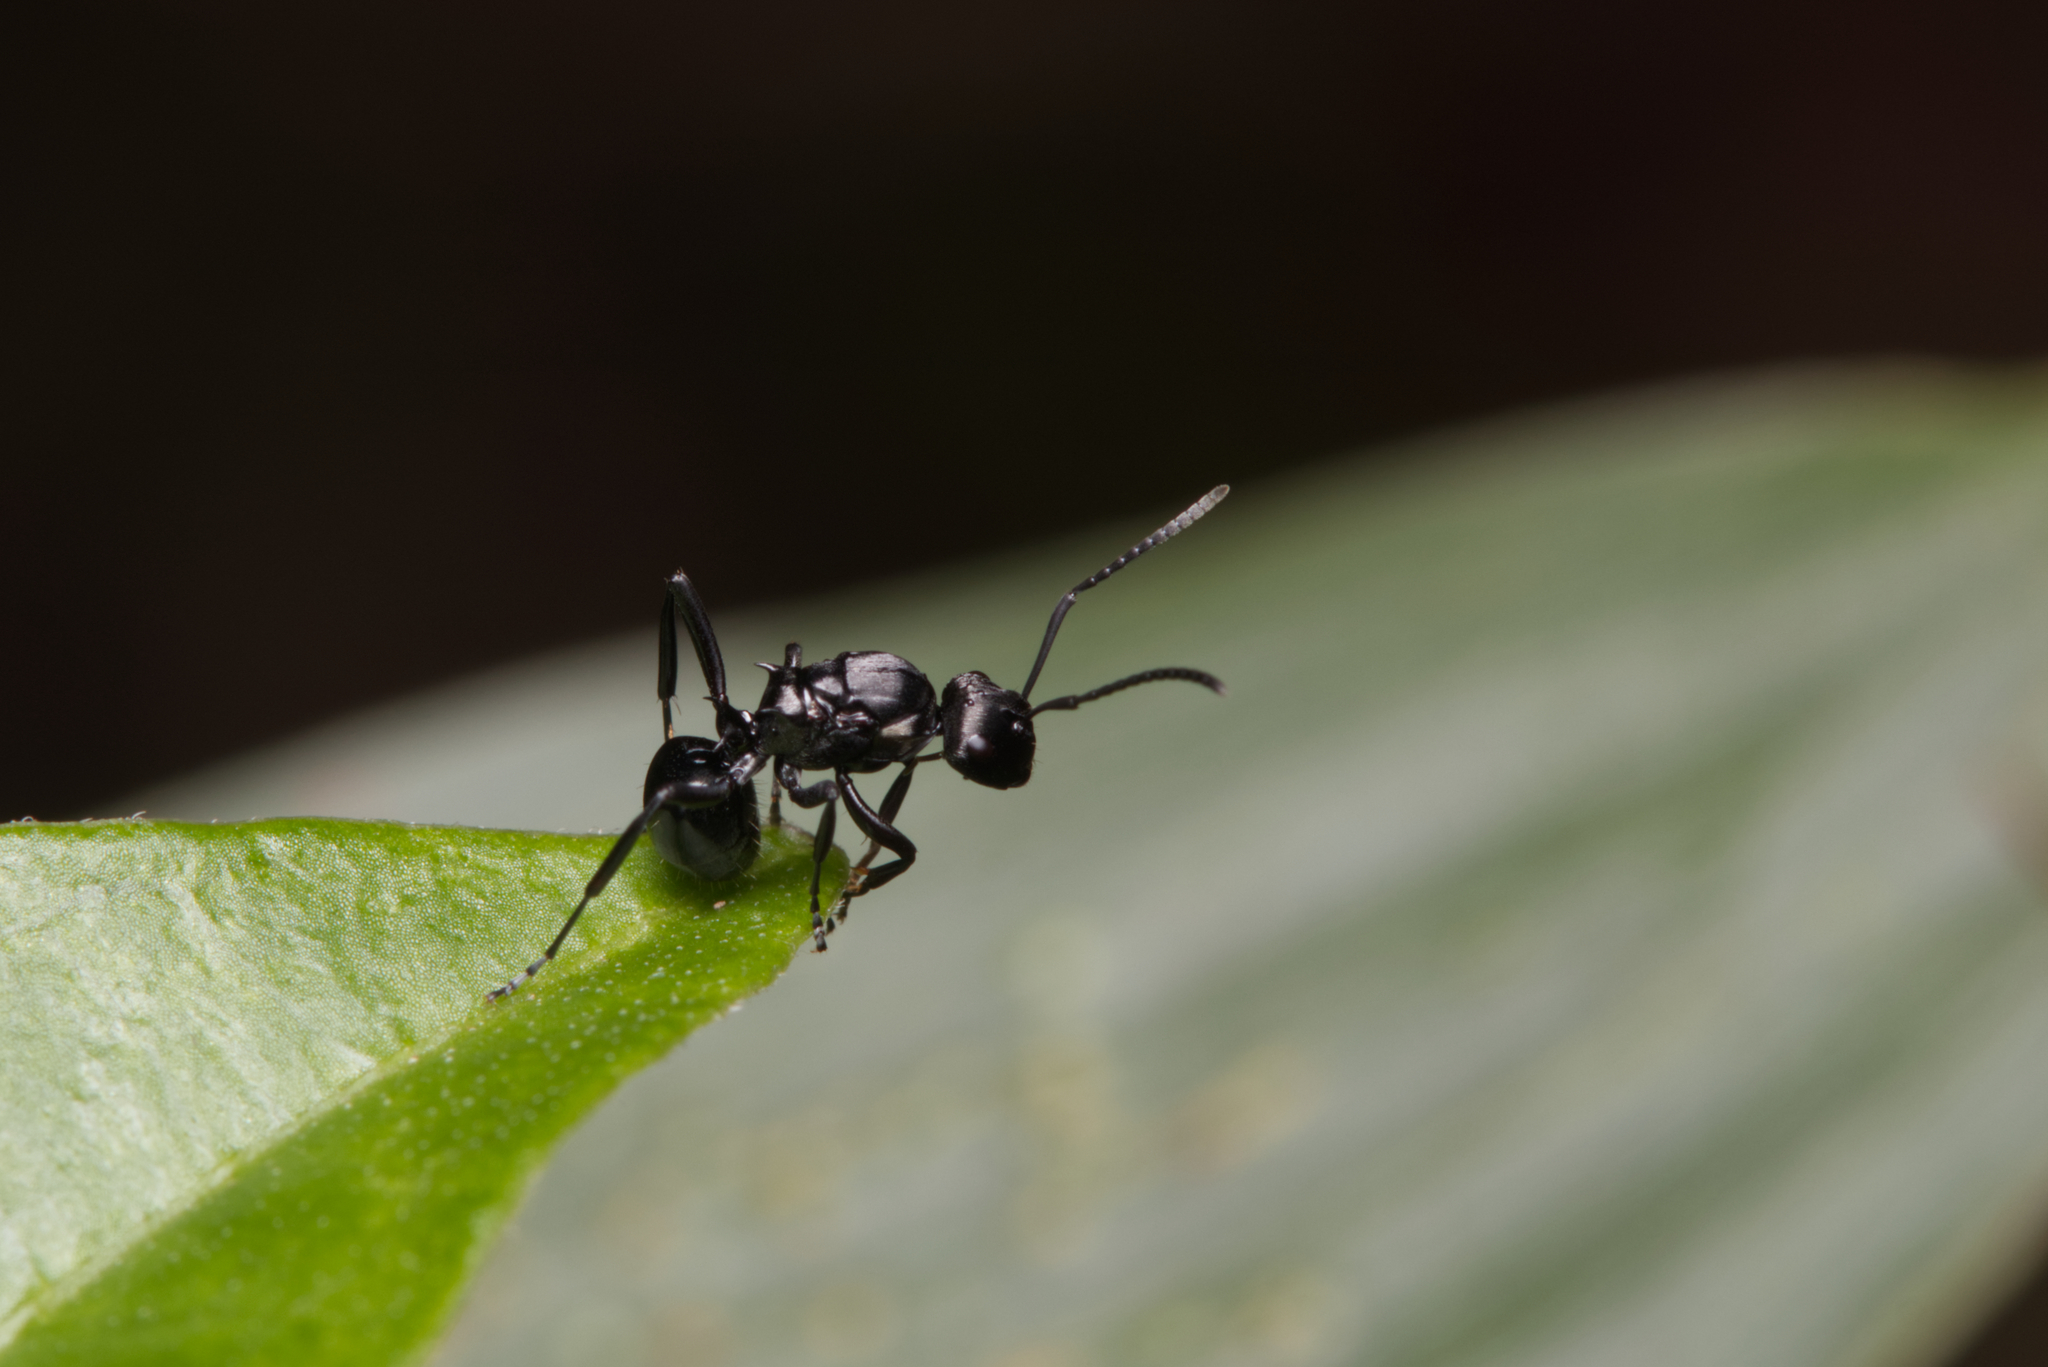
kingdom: Animalia
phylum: Arthropoda
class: Insecta
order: Hymenoptera
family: Formicidae
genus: Polyrhachis
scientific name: Polyrhachis clio
